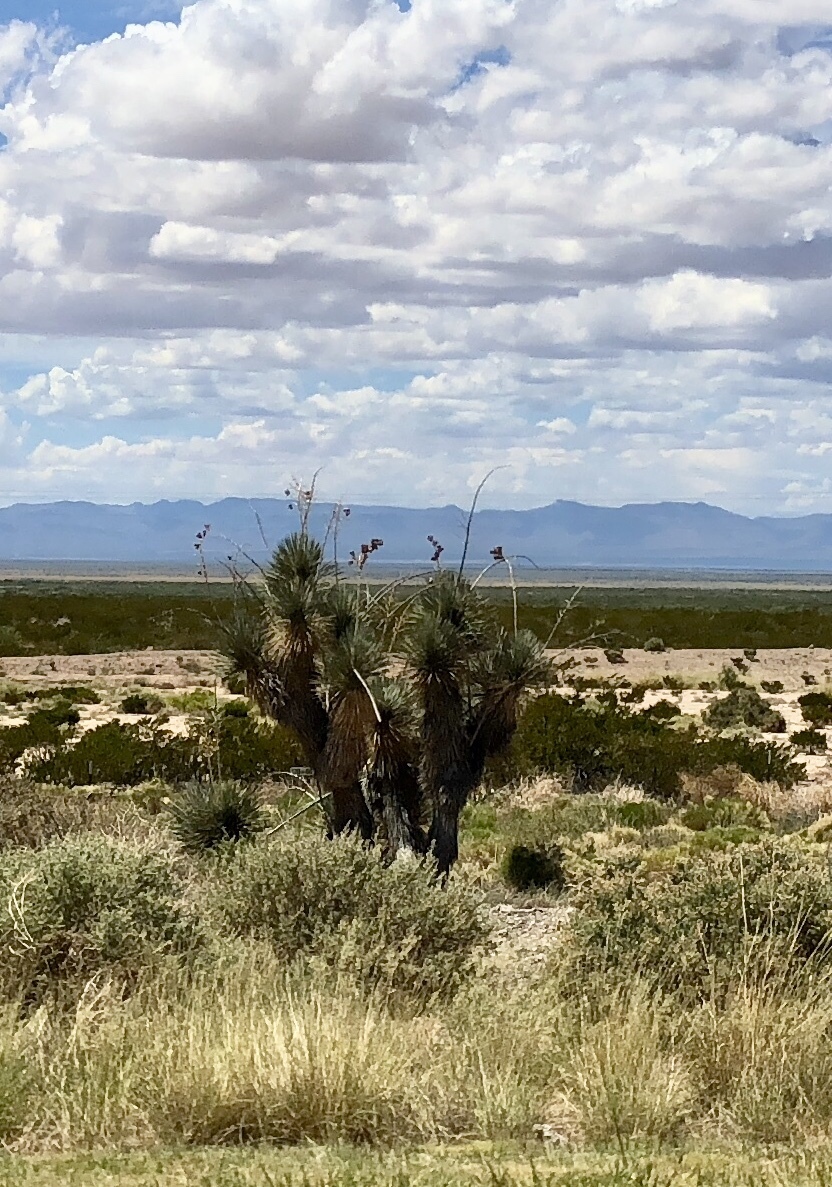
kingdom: Plantae
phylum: Tracheophyta
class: Liliopsida
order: Asparagales
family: Asparagaceae
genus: Yucca
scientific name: Yucca elata
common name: Palmella
